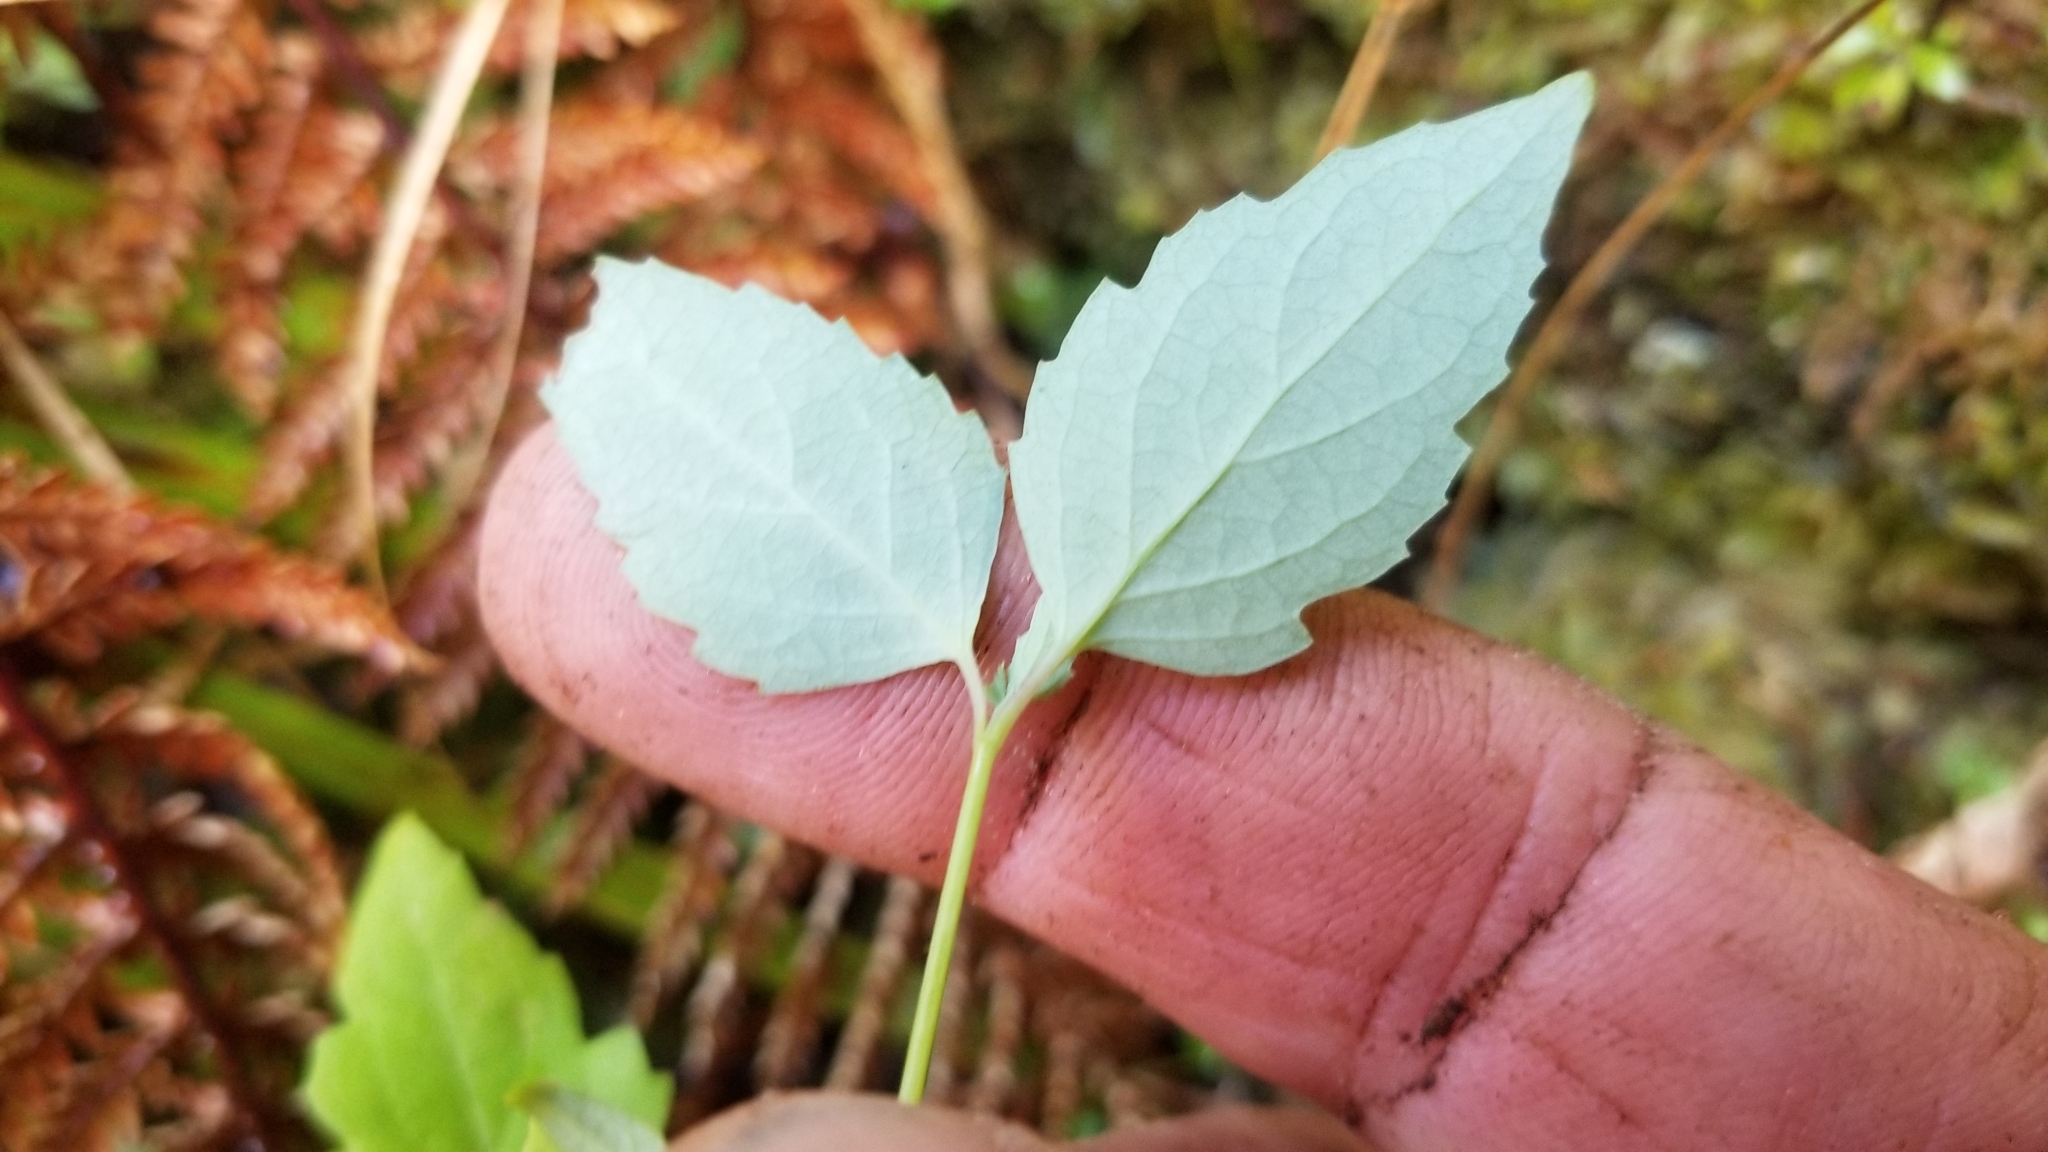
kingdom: Plantae
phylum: Tracheophyta
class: Magnoliopsida
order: Dipsacales
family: Caprifoliaceae
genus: Leycesteria
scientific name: Leycesteria formosa
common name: Himalayan honeysuckle
